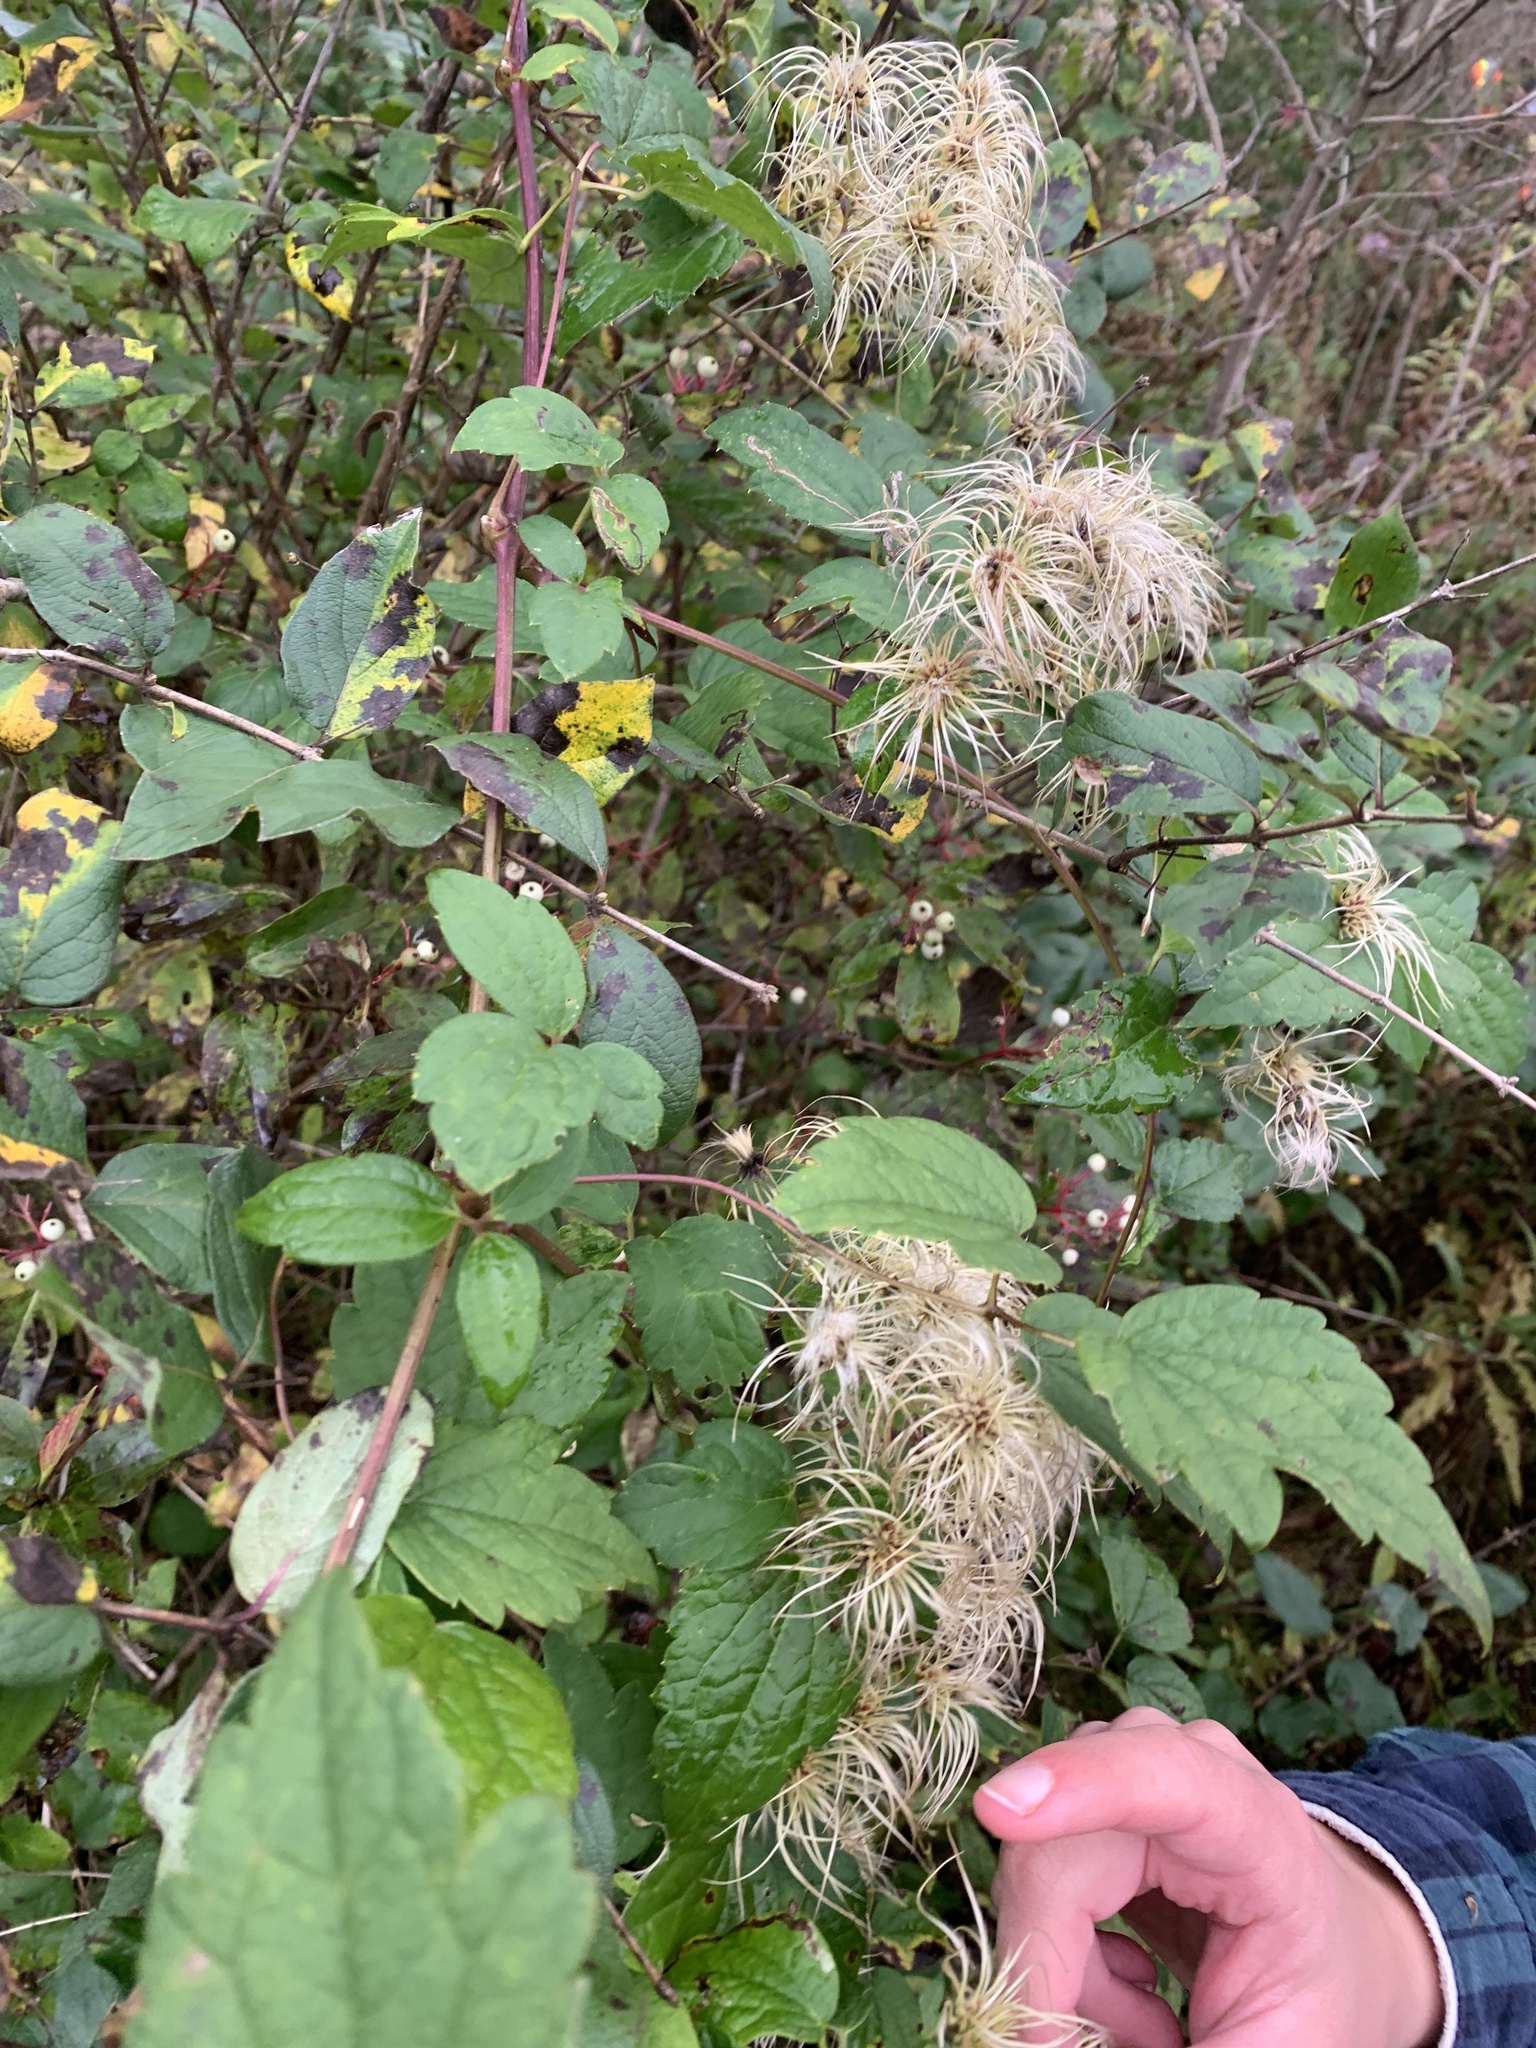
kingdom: Plantae
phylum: Tracheophyta
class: Magnoliopsida
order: Ranunculales
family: Ranunculaceae
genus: Clematis
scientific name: Clematis virginiana
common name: Virgin's-bower
